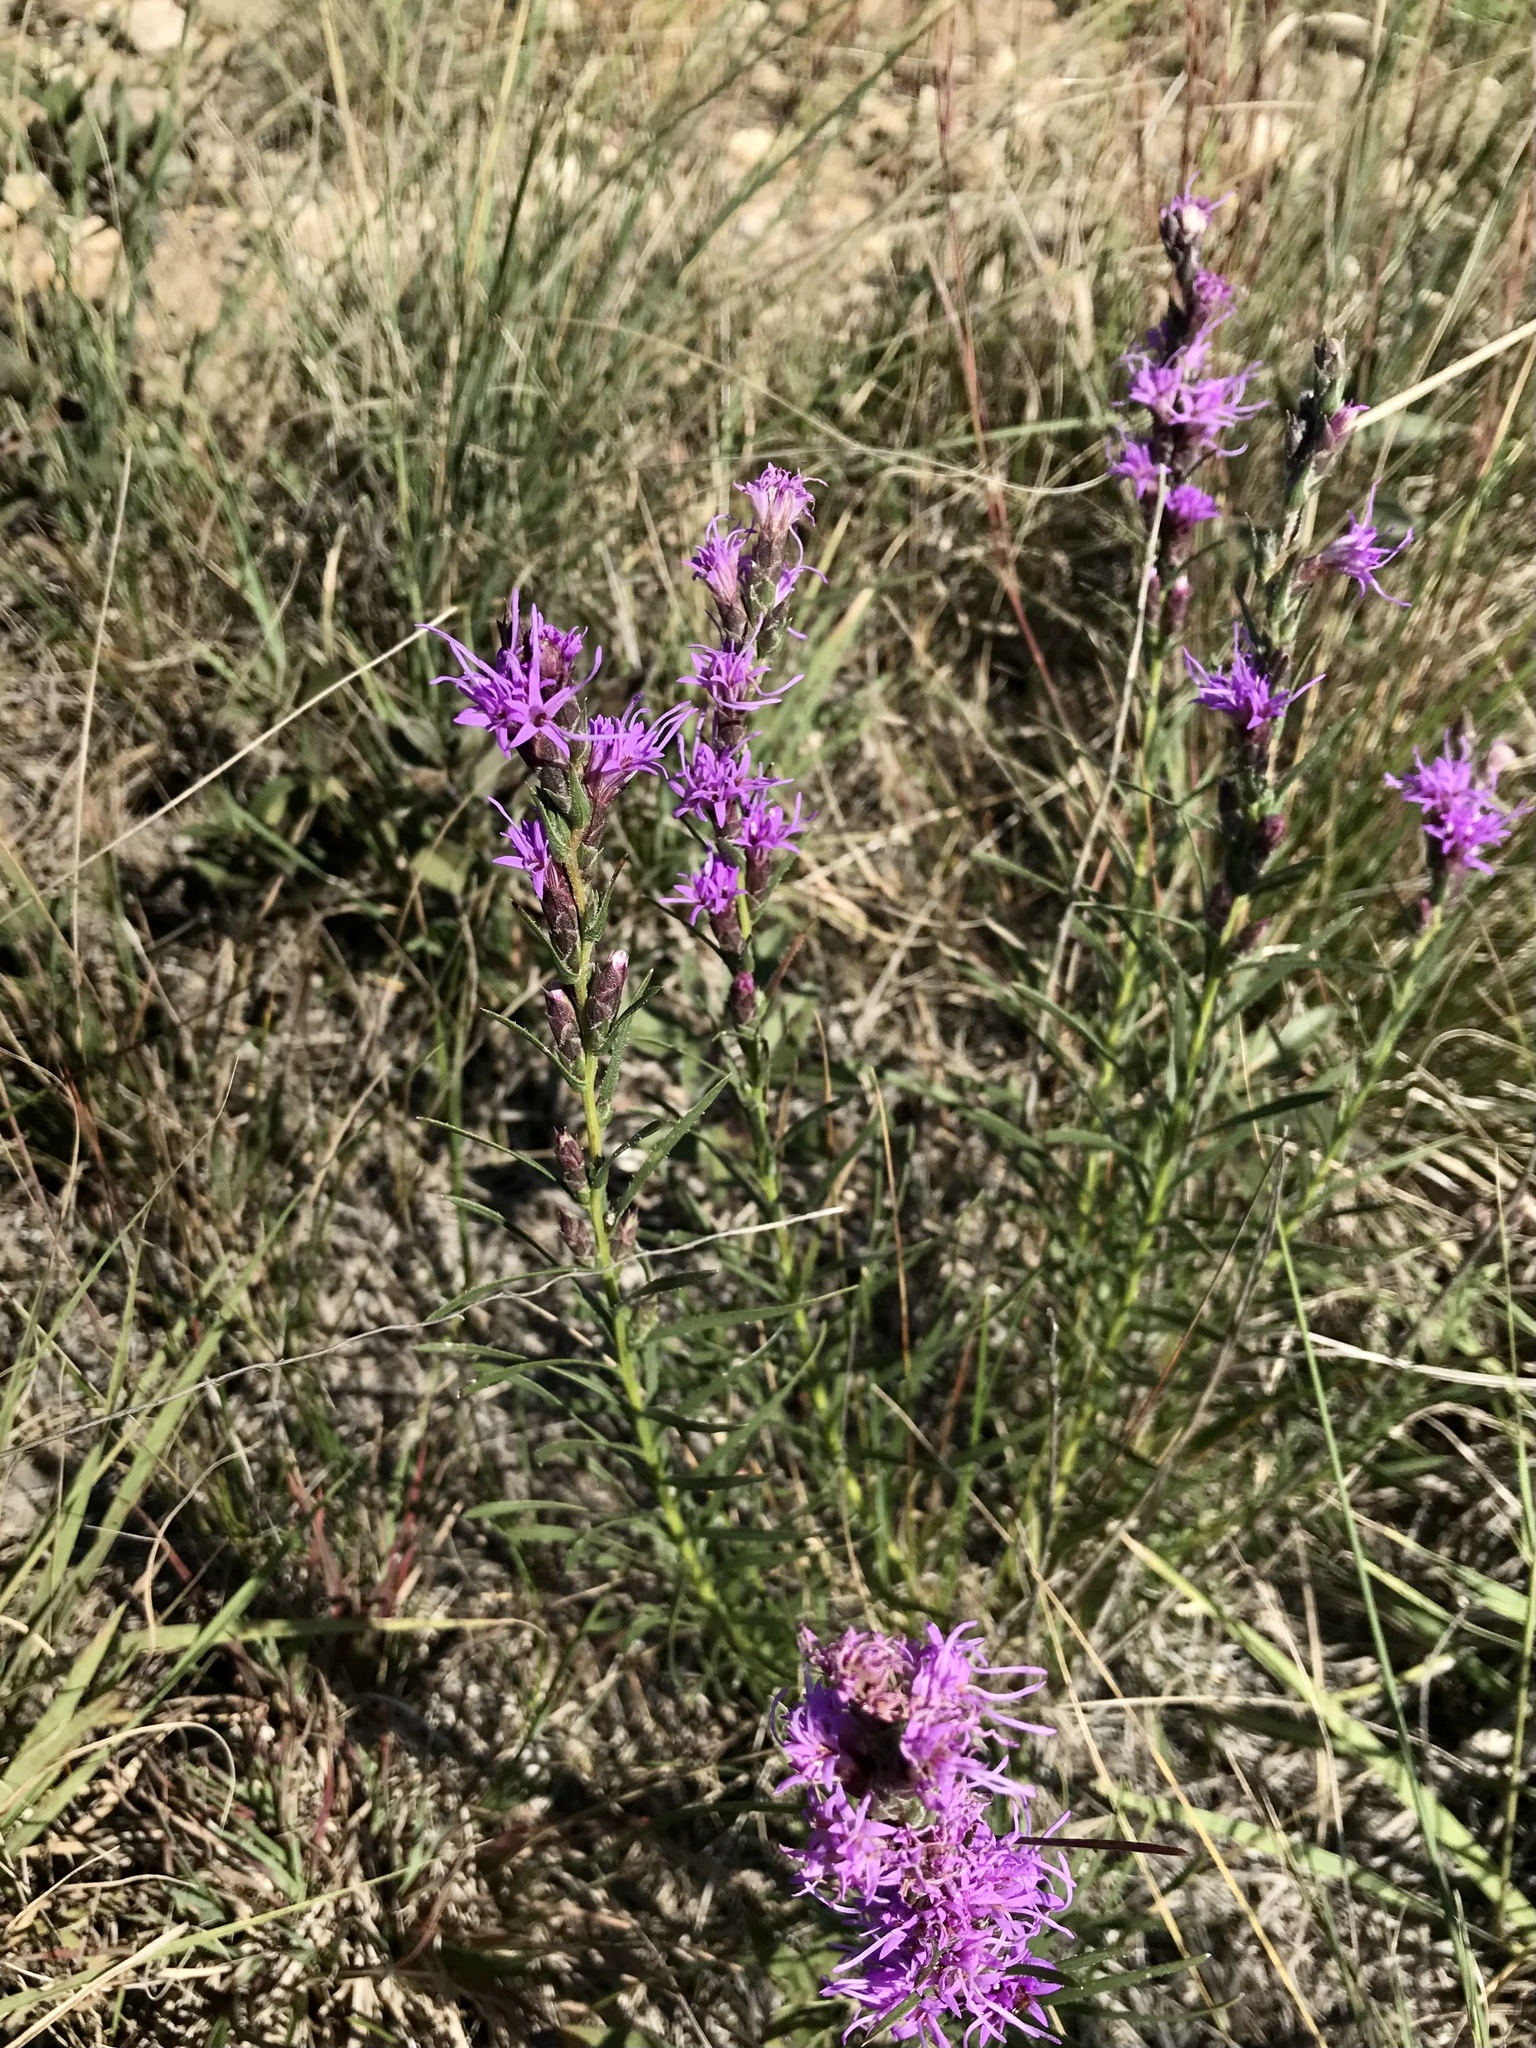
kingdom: Plantae
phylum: Tracheophyta
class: Magnoliopsida
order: Asterales
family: Asteraceae
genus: Liatris
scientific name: Liatris punctata
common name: Dotted gayfeather
